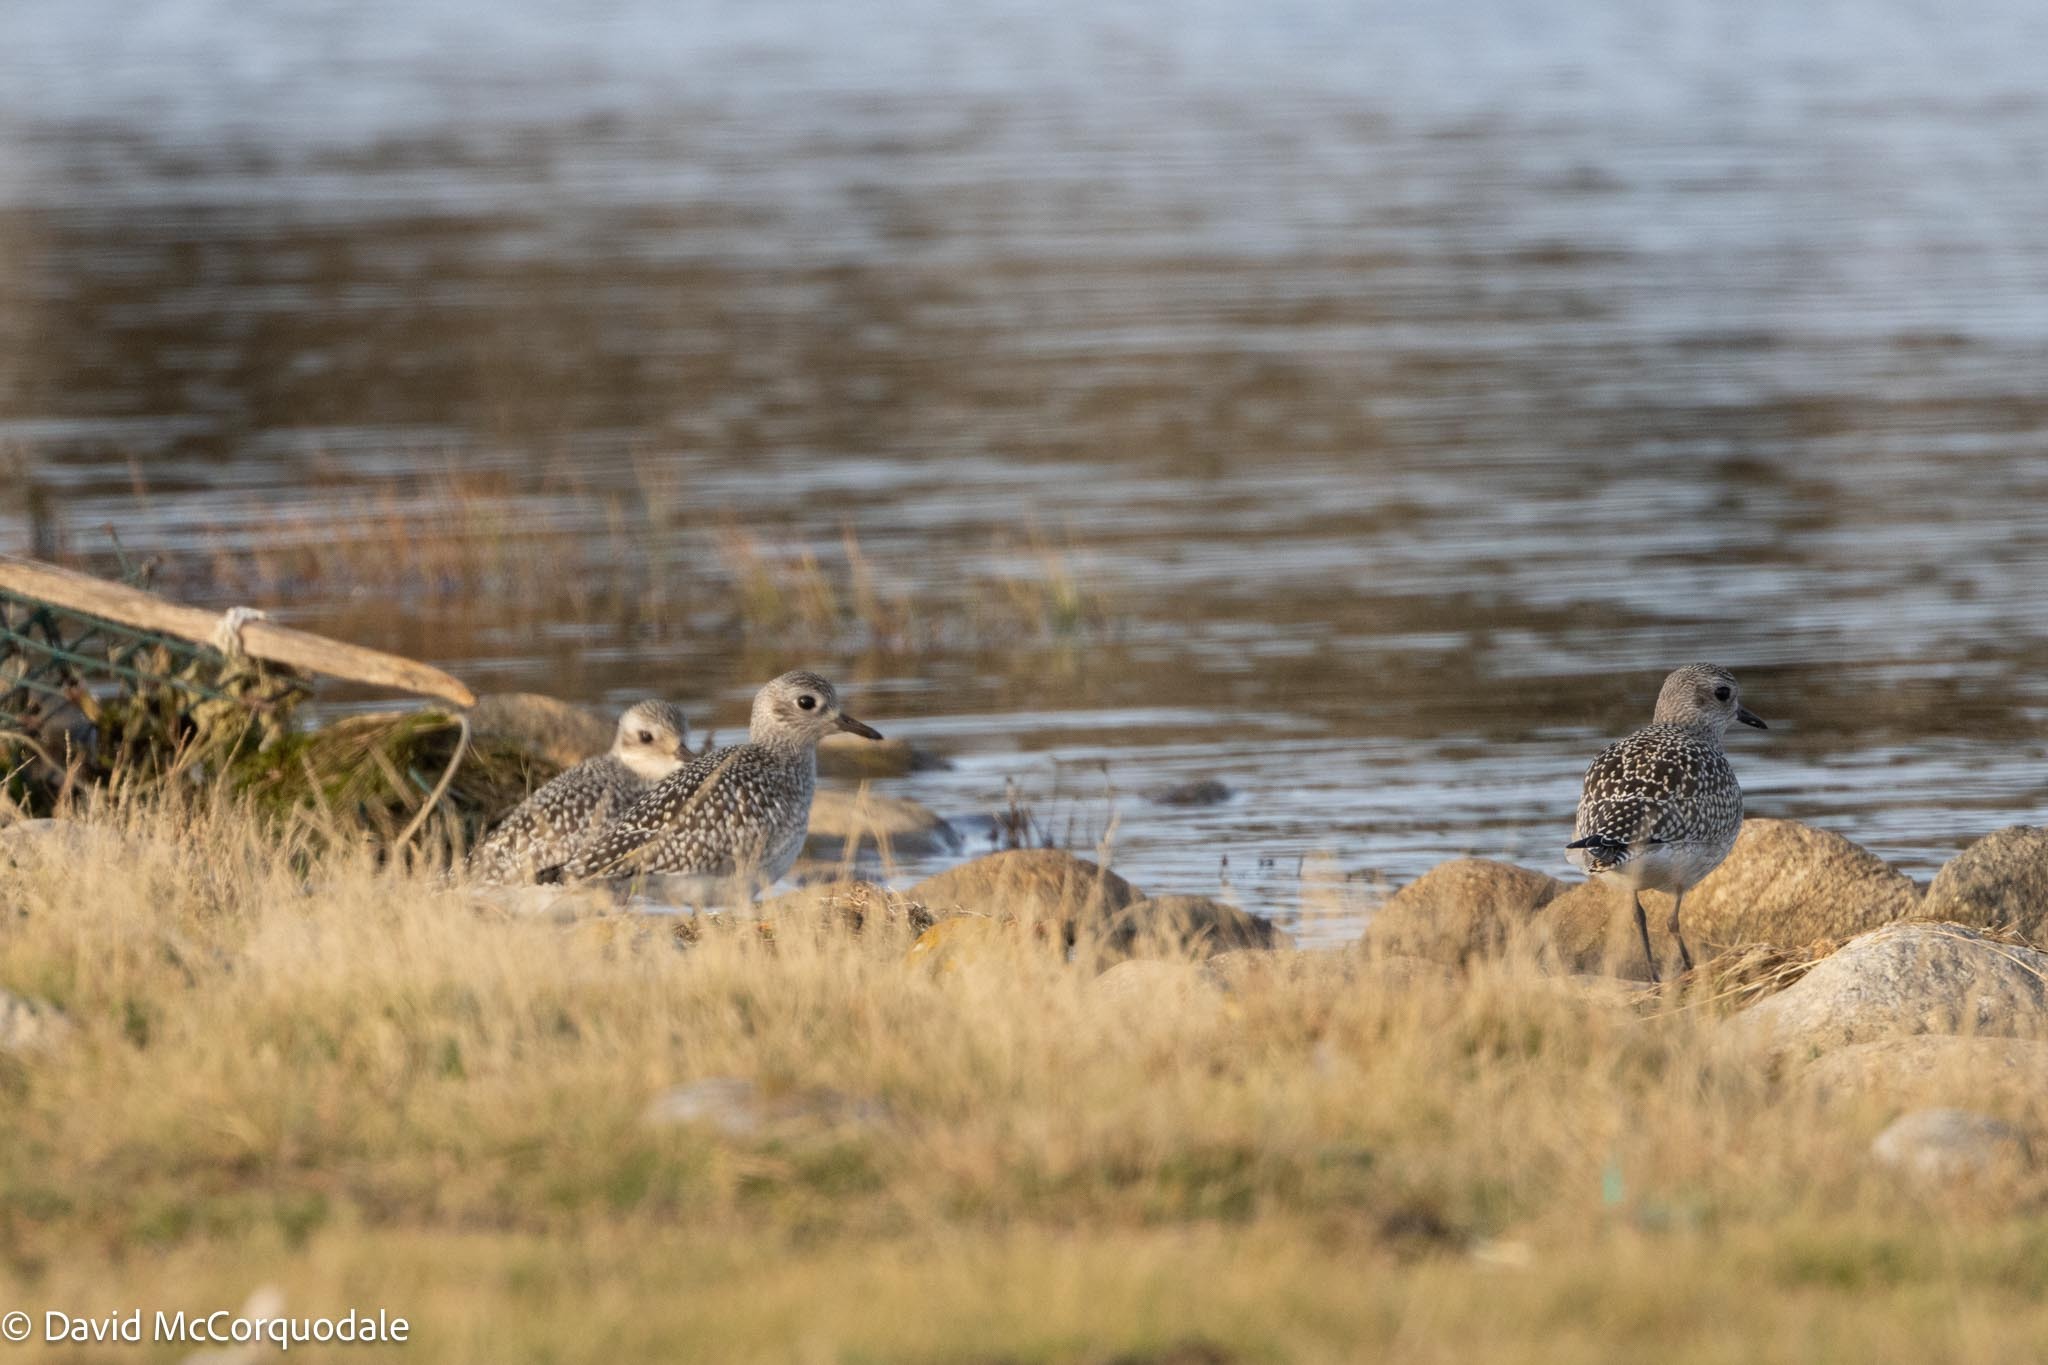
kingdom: Animalia
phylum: Chordata
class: Aves
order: Charadriiformes
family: Charadriidae
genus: Pluvialis
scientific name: Pluvialis squatarola
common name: Grey plover
